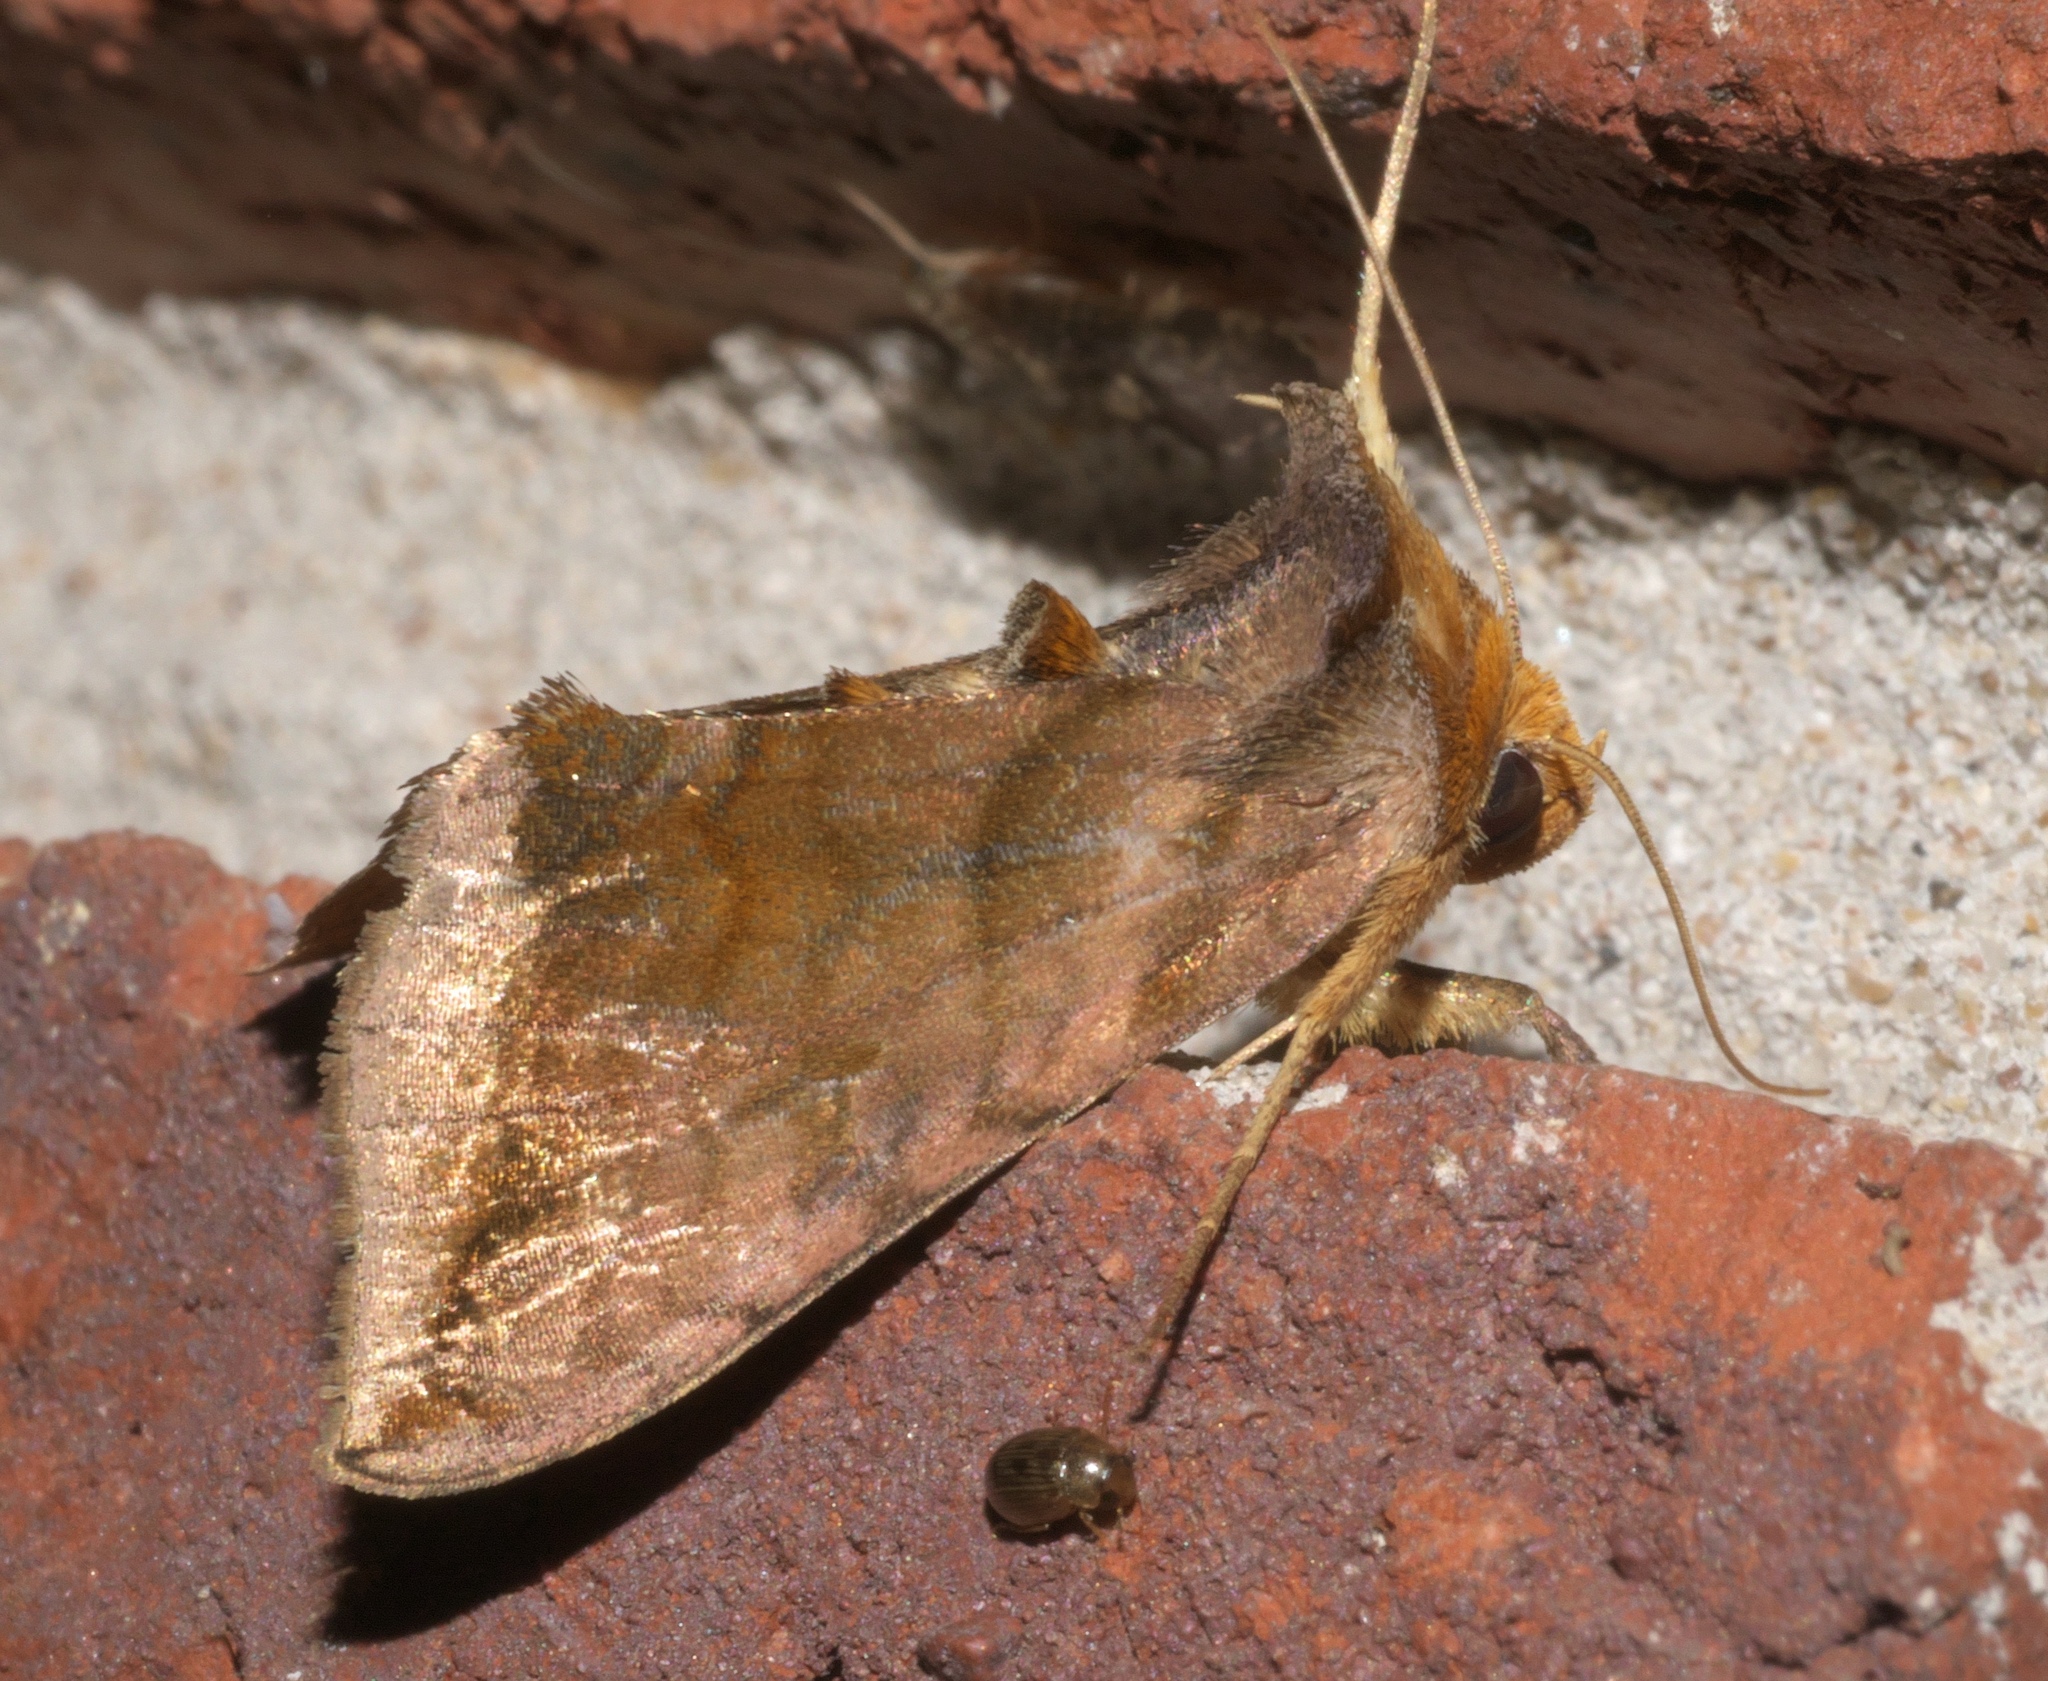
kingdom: Animalia
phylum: Arthropoda
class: Insecta
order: Lepidoptera
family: Noctuidae
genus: Allagrapha
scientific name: Allagrapha aerea
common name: Unspotted looper moth
